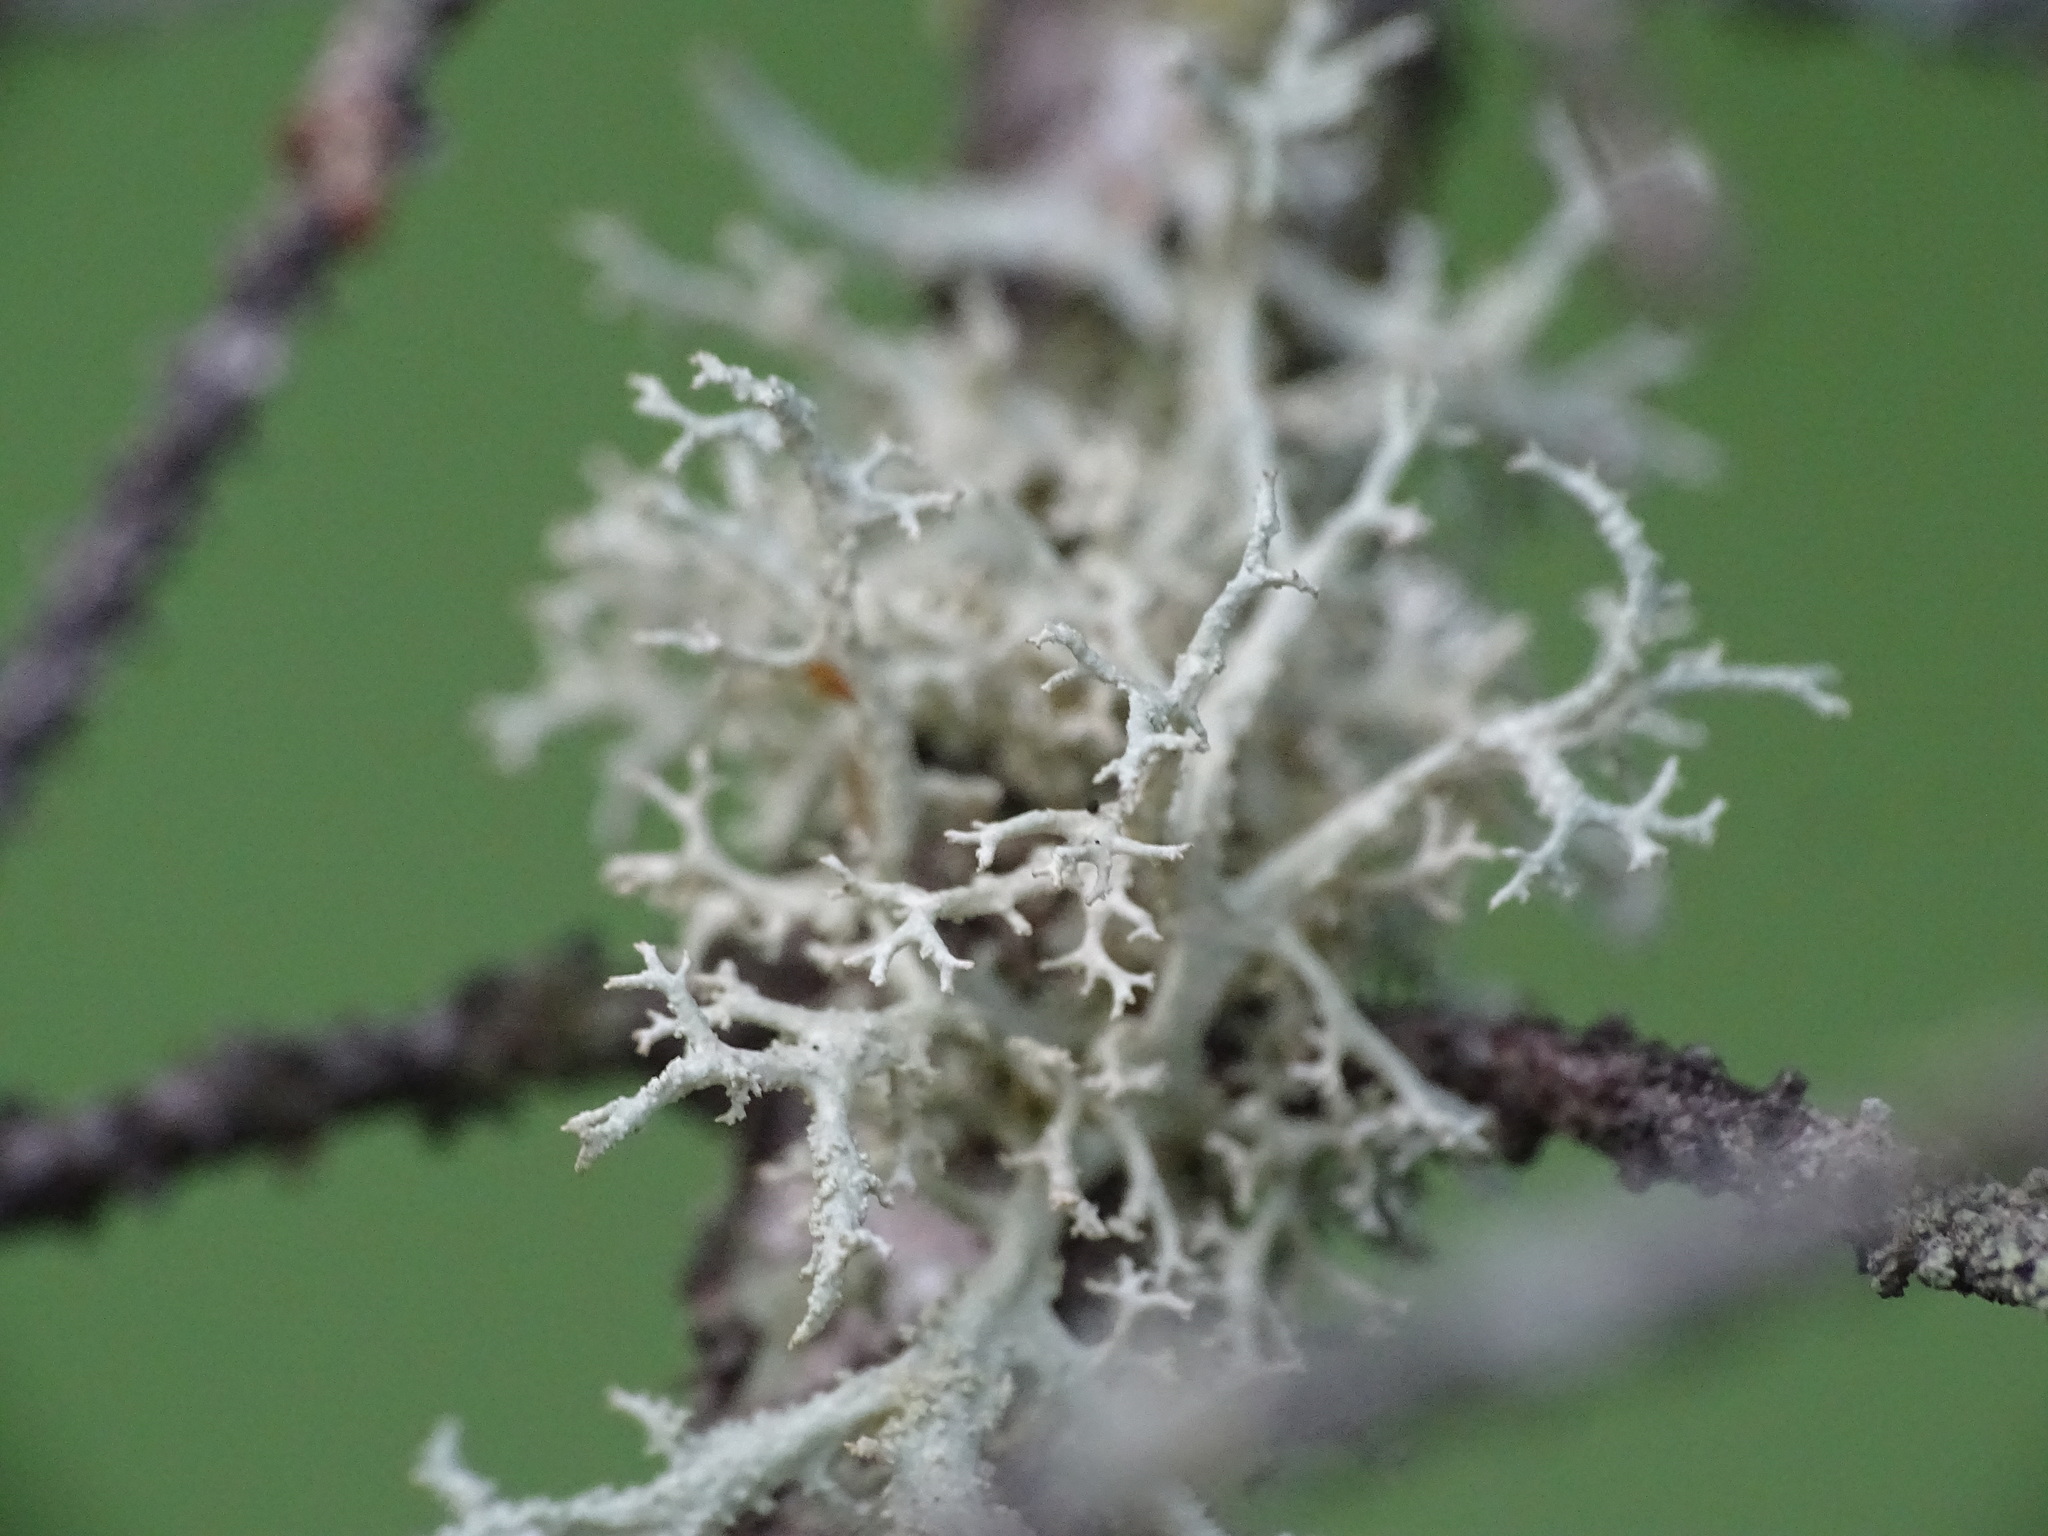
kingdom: Fungi
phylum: Ascomycota
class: Lecanoromycetes
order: Lecanorales
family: Parmeliaceae
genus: Evernia
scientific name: Evernia mesomorpha
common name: Boreal oak moss lichen
